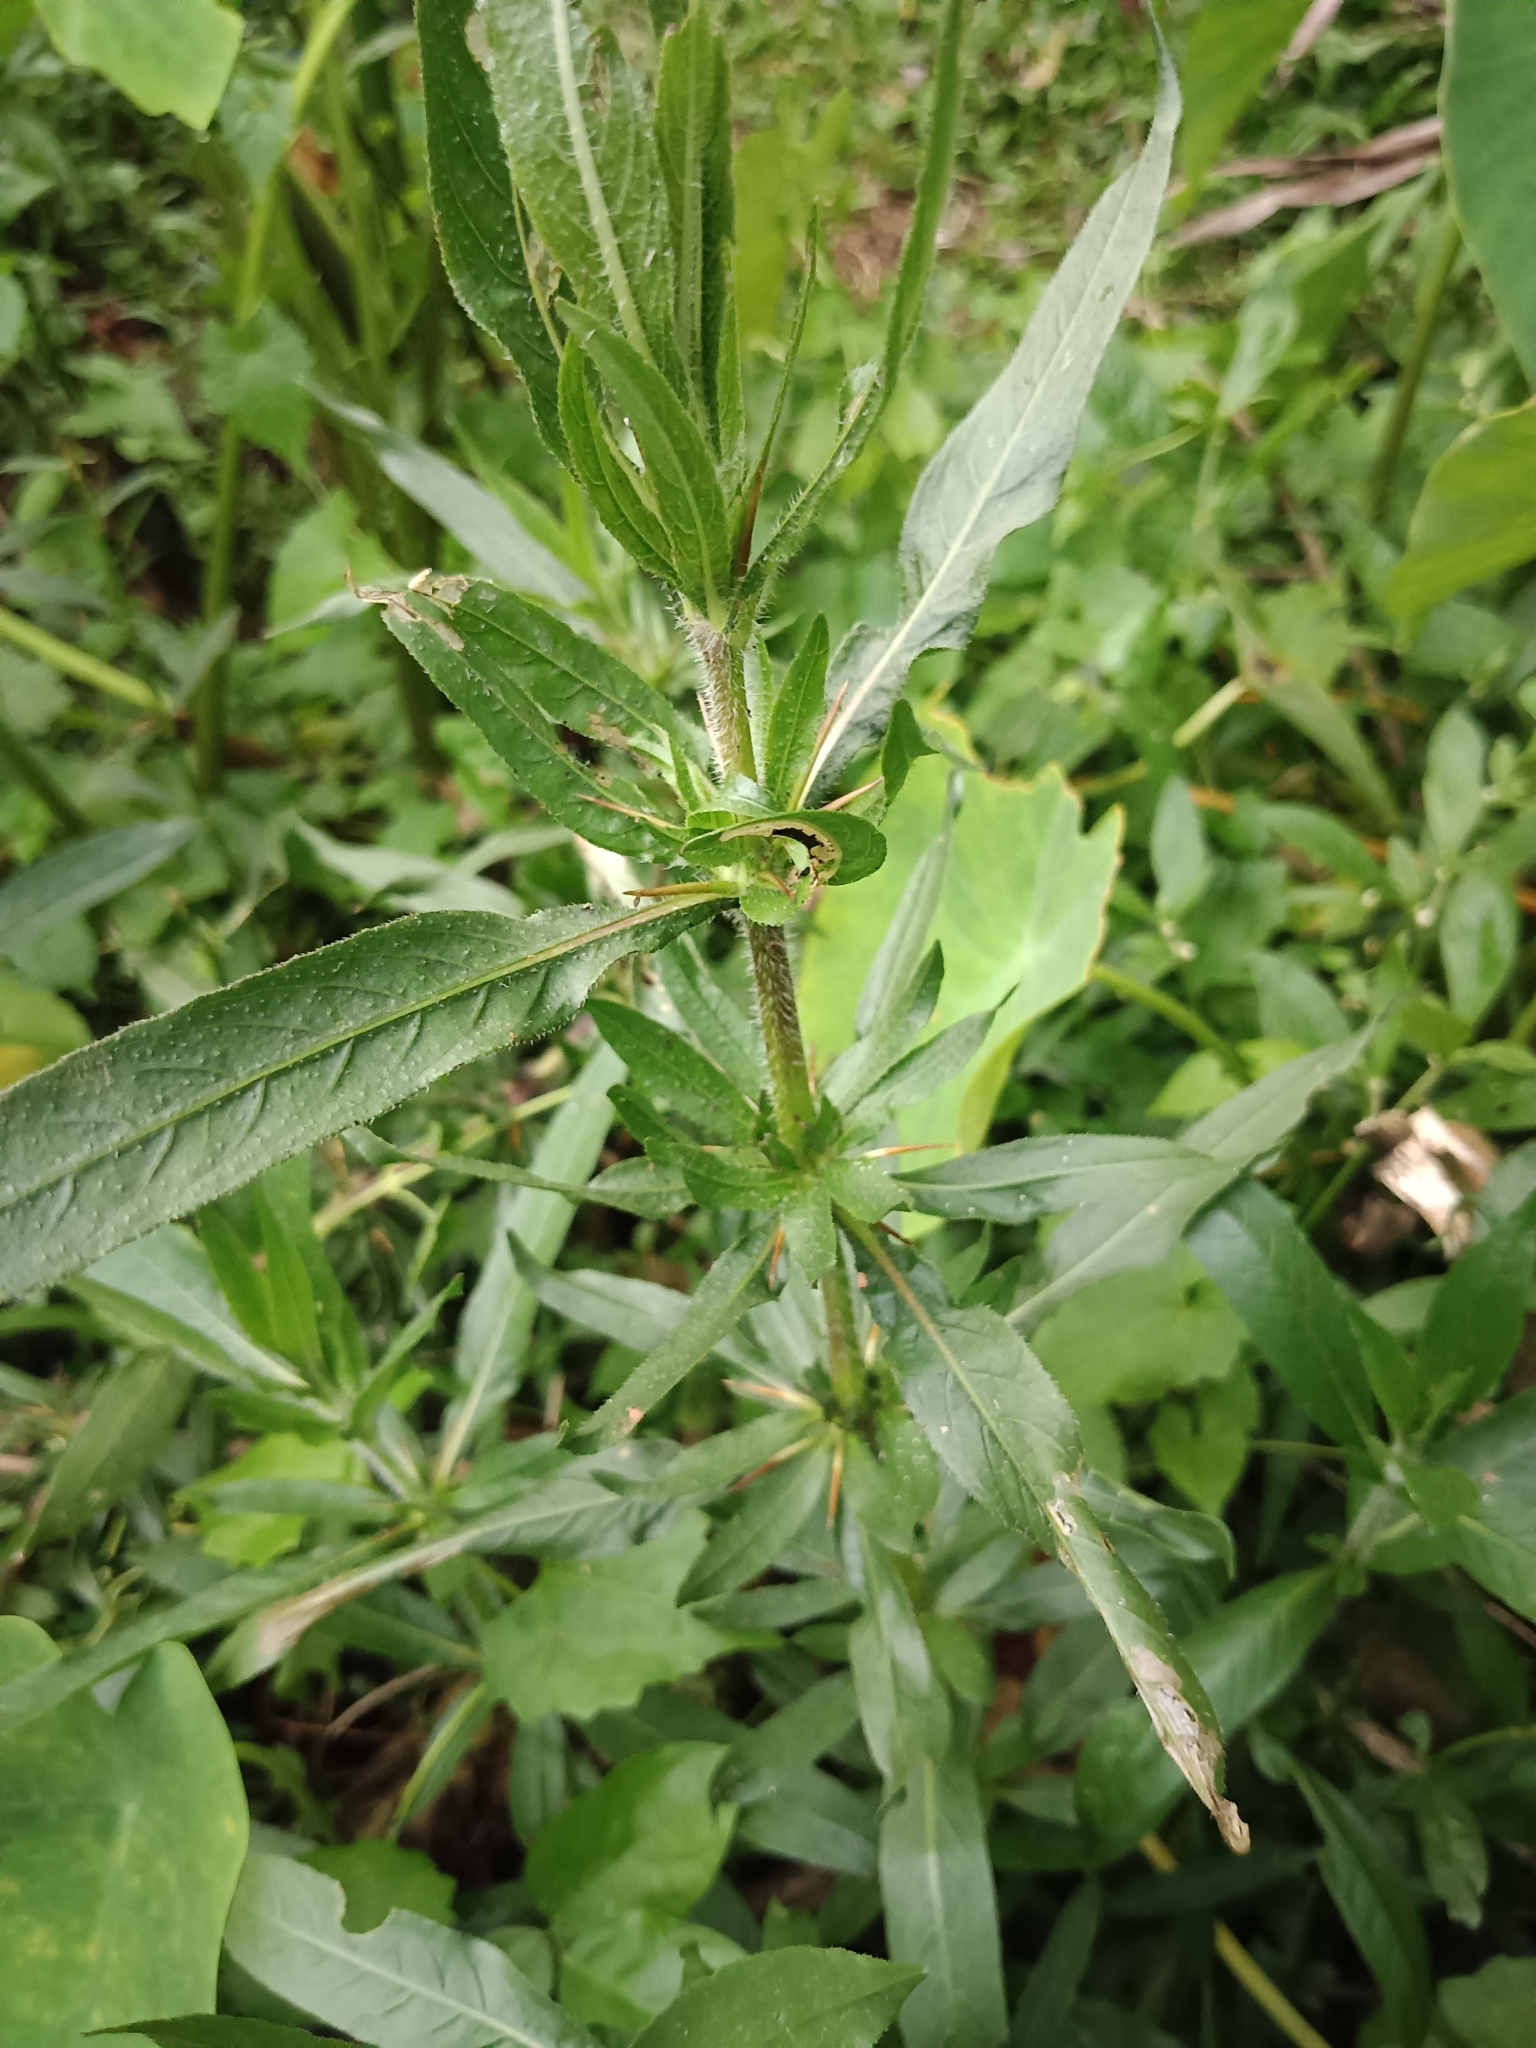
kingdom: Plantae
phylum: Tracheophyta
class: Magnoliopsida
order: Lamiales
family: Acanthaceae
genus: Hygrophila
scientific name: Hygrophila auriculata
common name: Hygrophila
